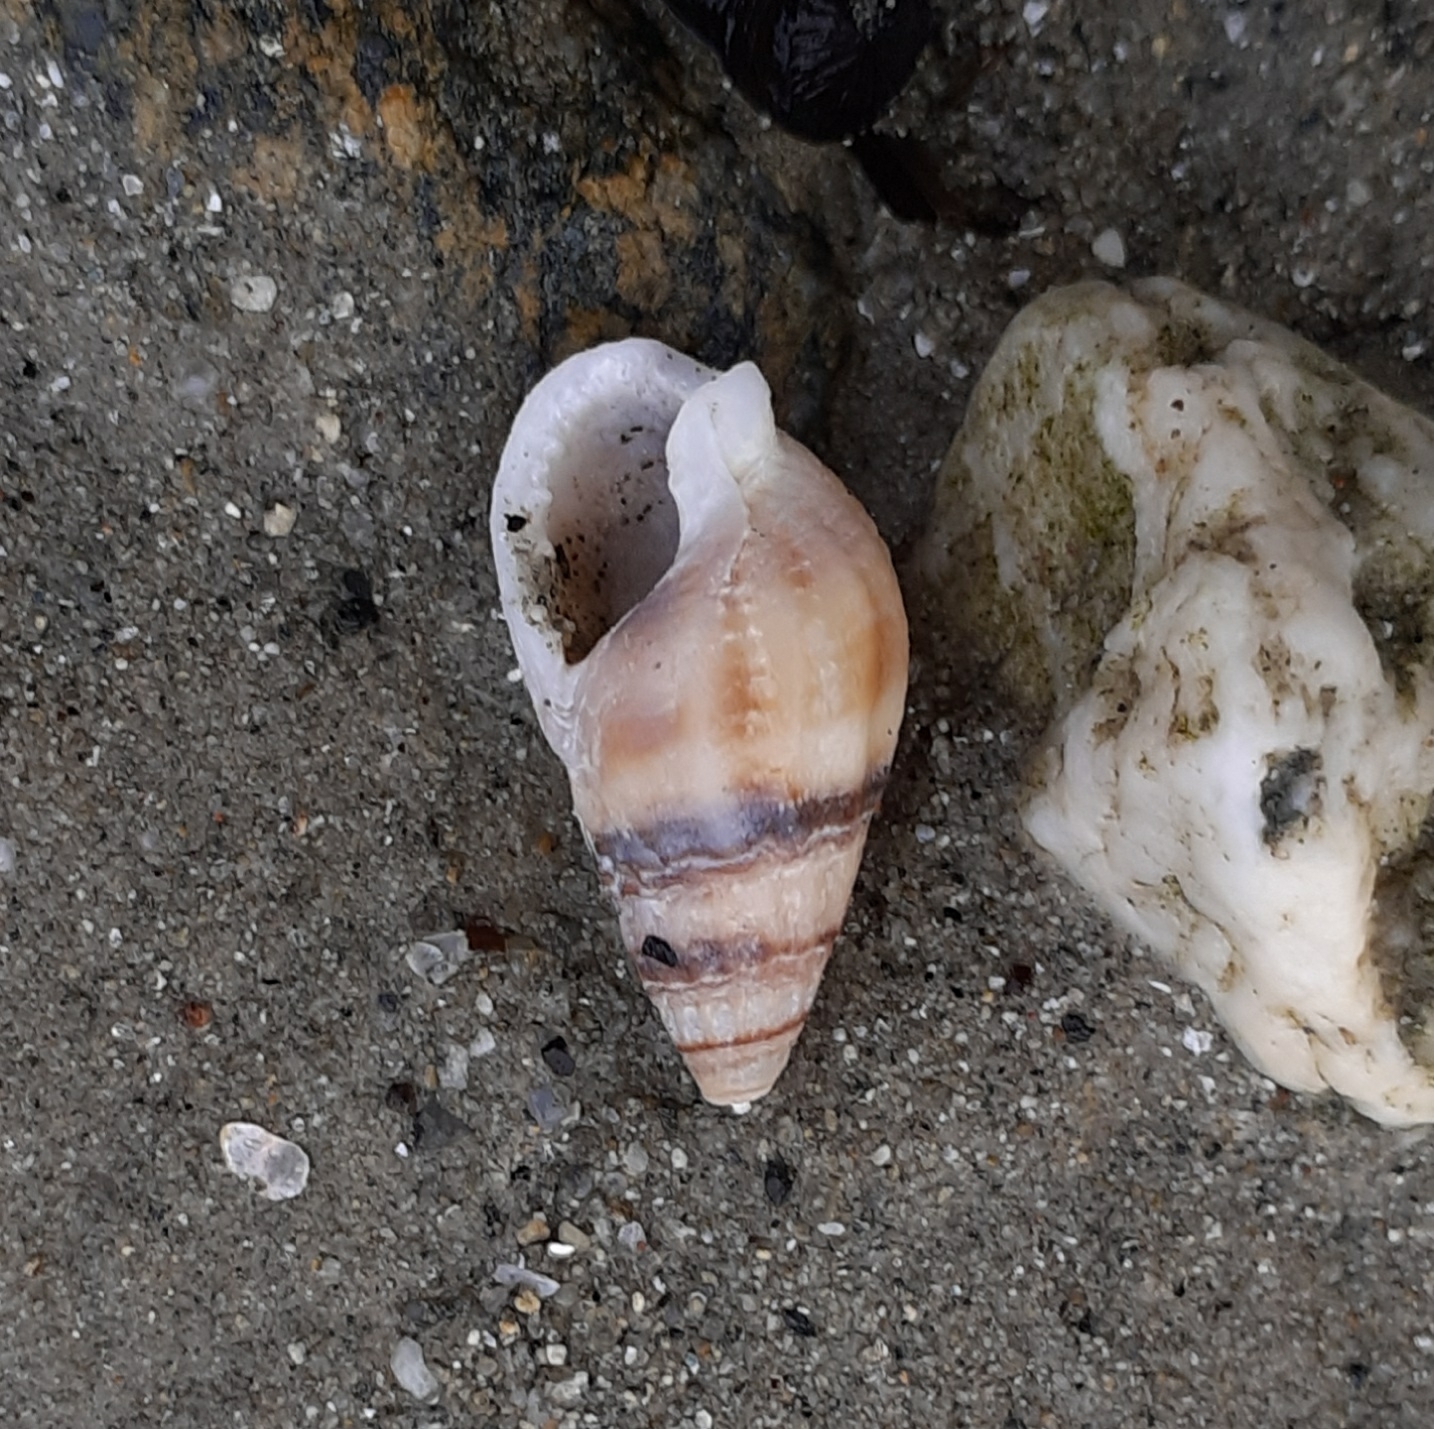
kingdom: Animalia
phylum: Mollusca
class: Gastropoda
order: Neogastropoda
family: Nassariidae
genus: Tritia
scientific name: Tritia reticulata
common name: Netted dog whelk
